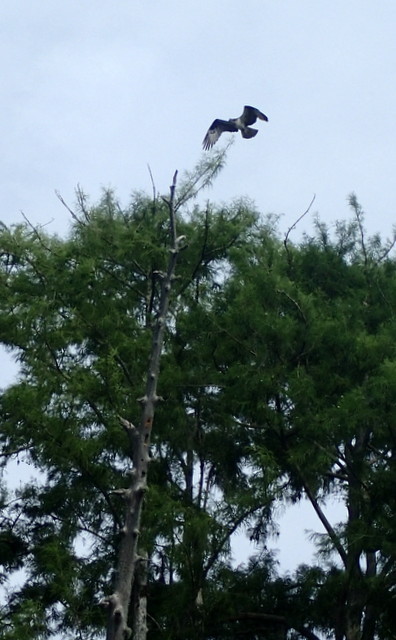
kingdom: Animalia
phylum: Chordata
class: Aves
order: Accipitriformes
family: Pandionidae
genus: Pandion
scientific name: Pandion haliaetus
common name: Osprey
